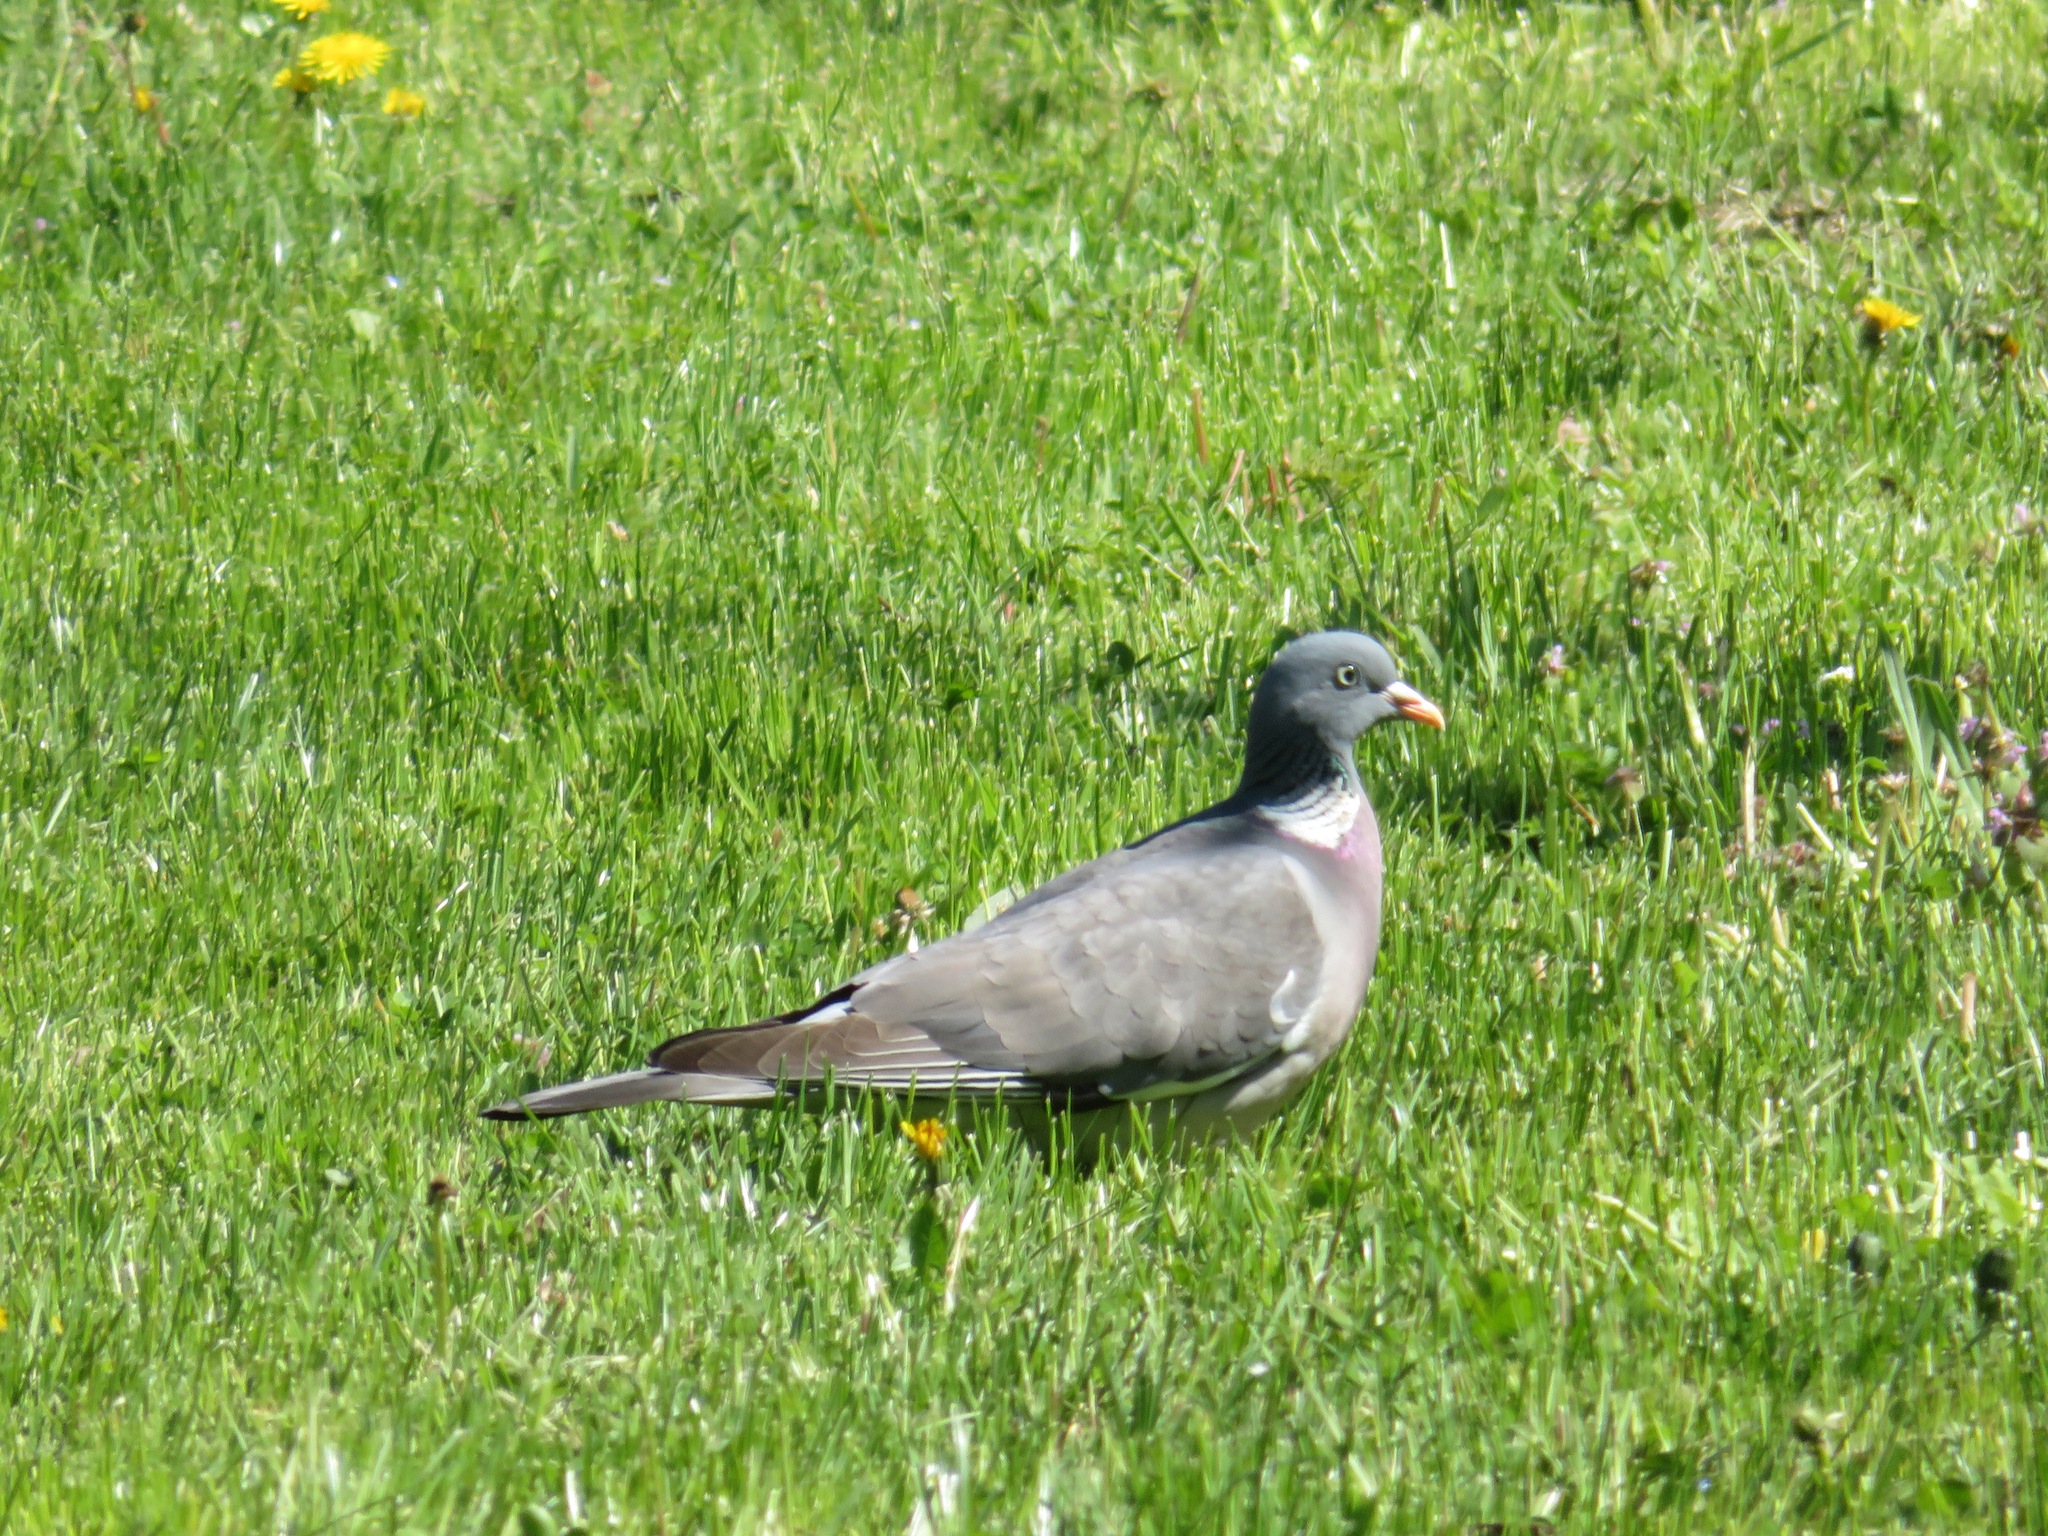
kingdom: Animalia
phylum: Chordata
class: Aves
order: Columbiformes
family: Columbidae
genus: Columba
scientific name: Columba palumbus
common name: Common wood pigeon
